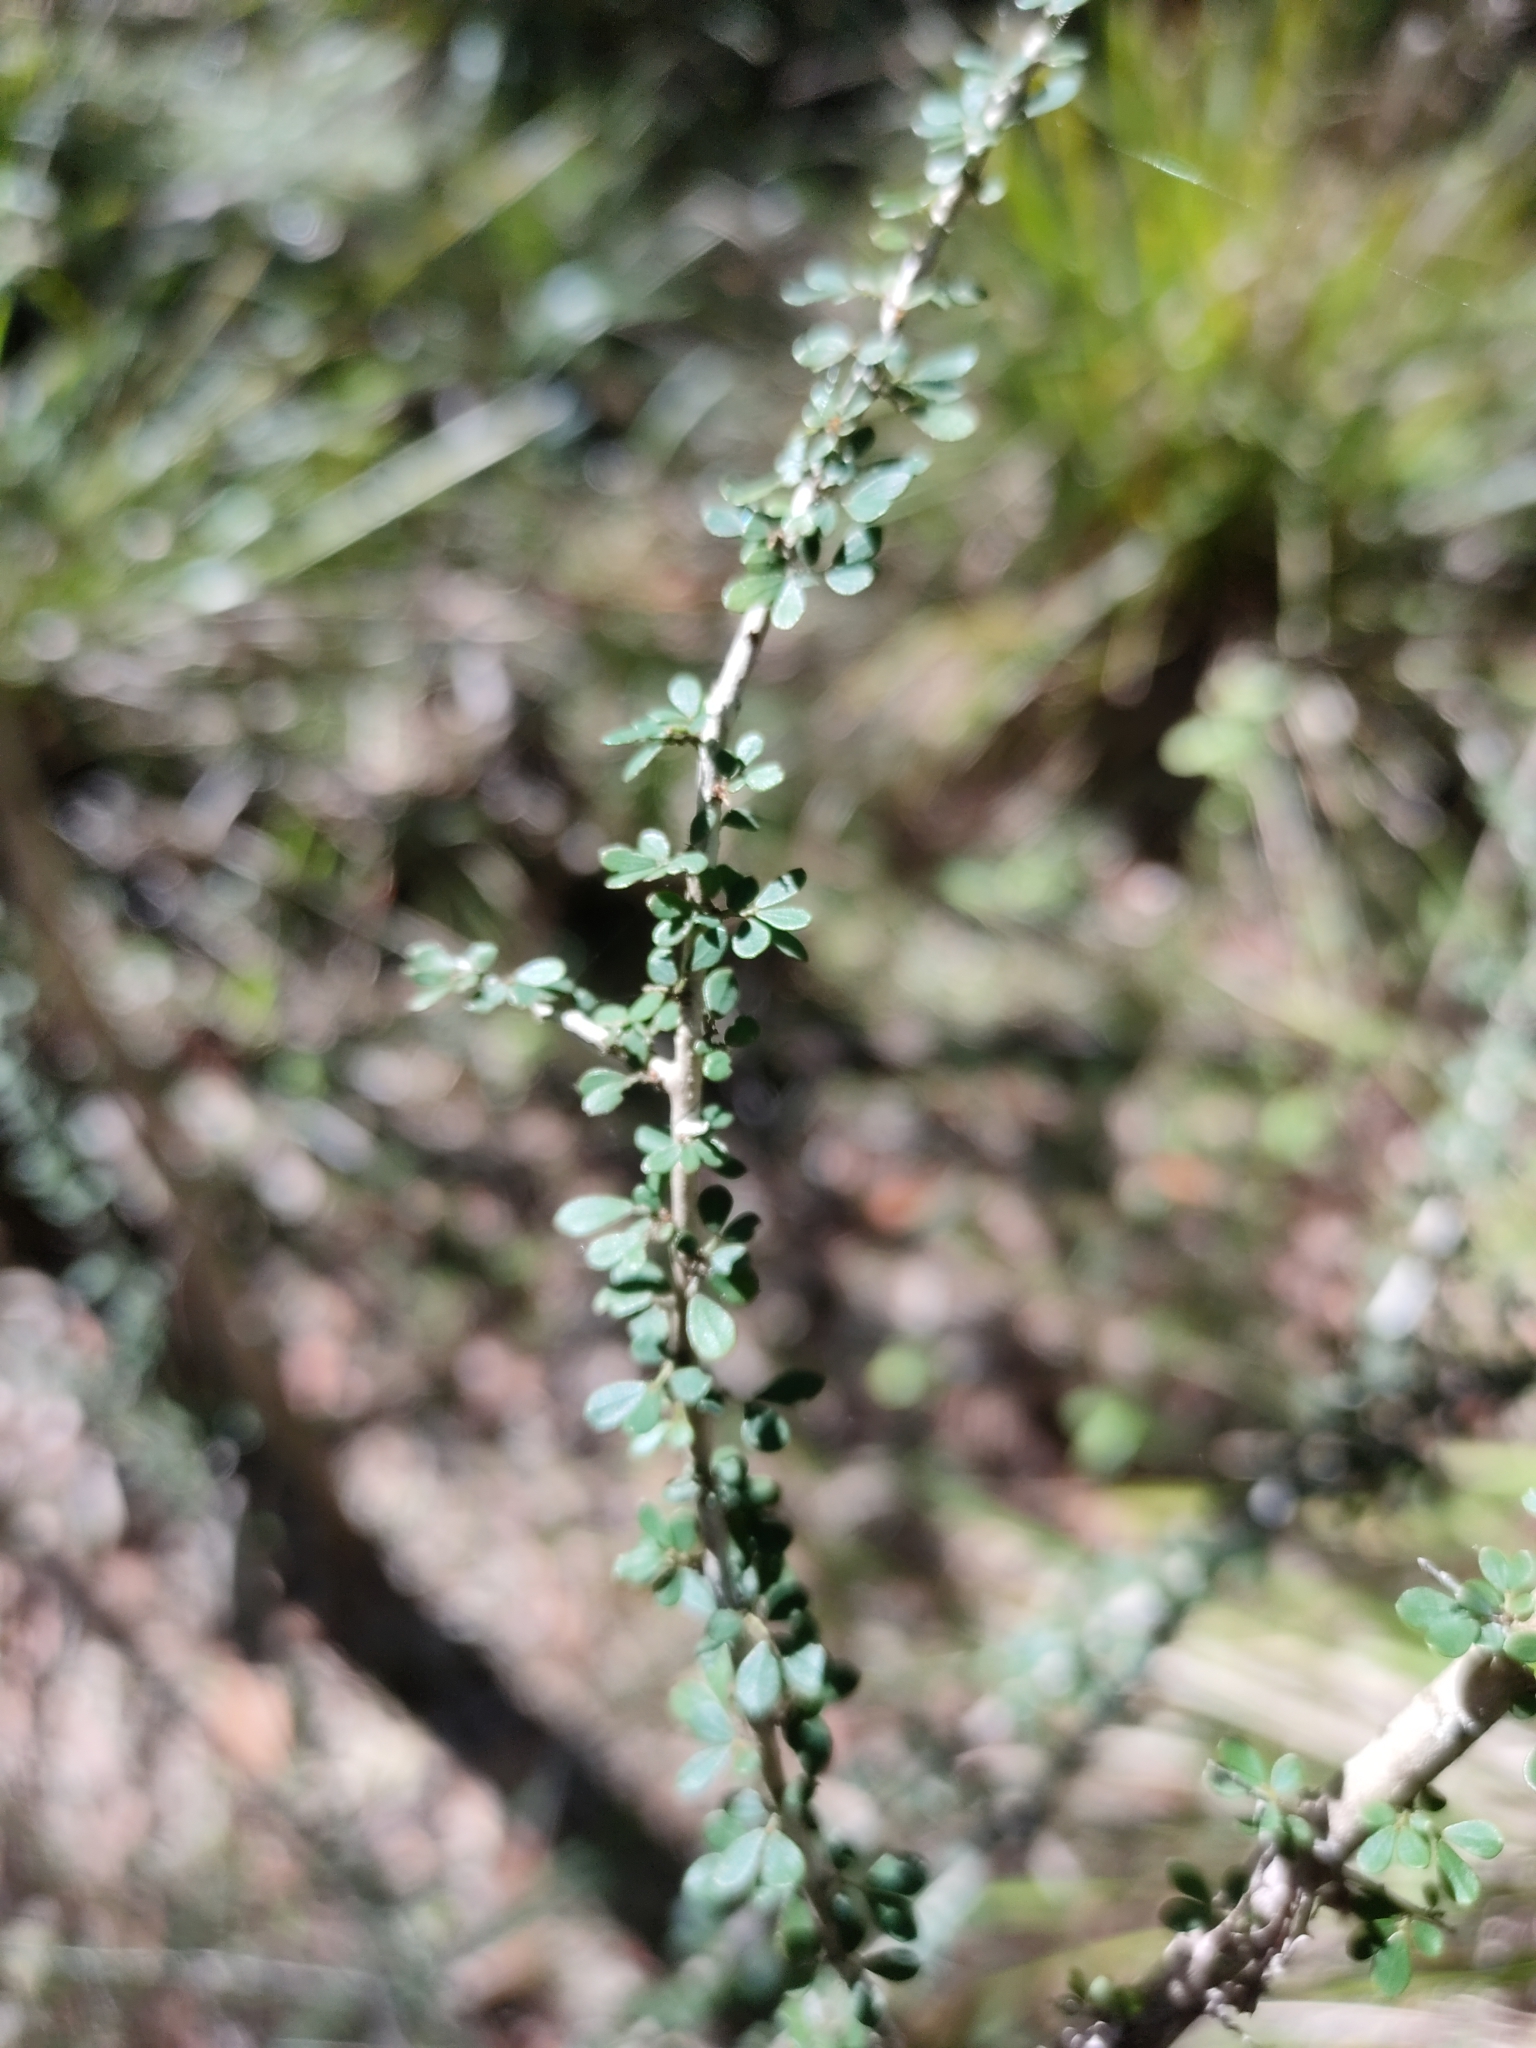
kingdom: Plantae
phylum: Tracheophyta
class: Magnoliopsida
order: Malpighiales
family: Phyllanthaceae
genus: Phyllanthus
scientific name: Phyllanthus microcladus
